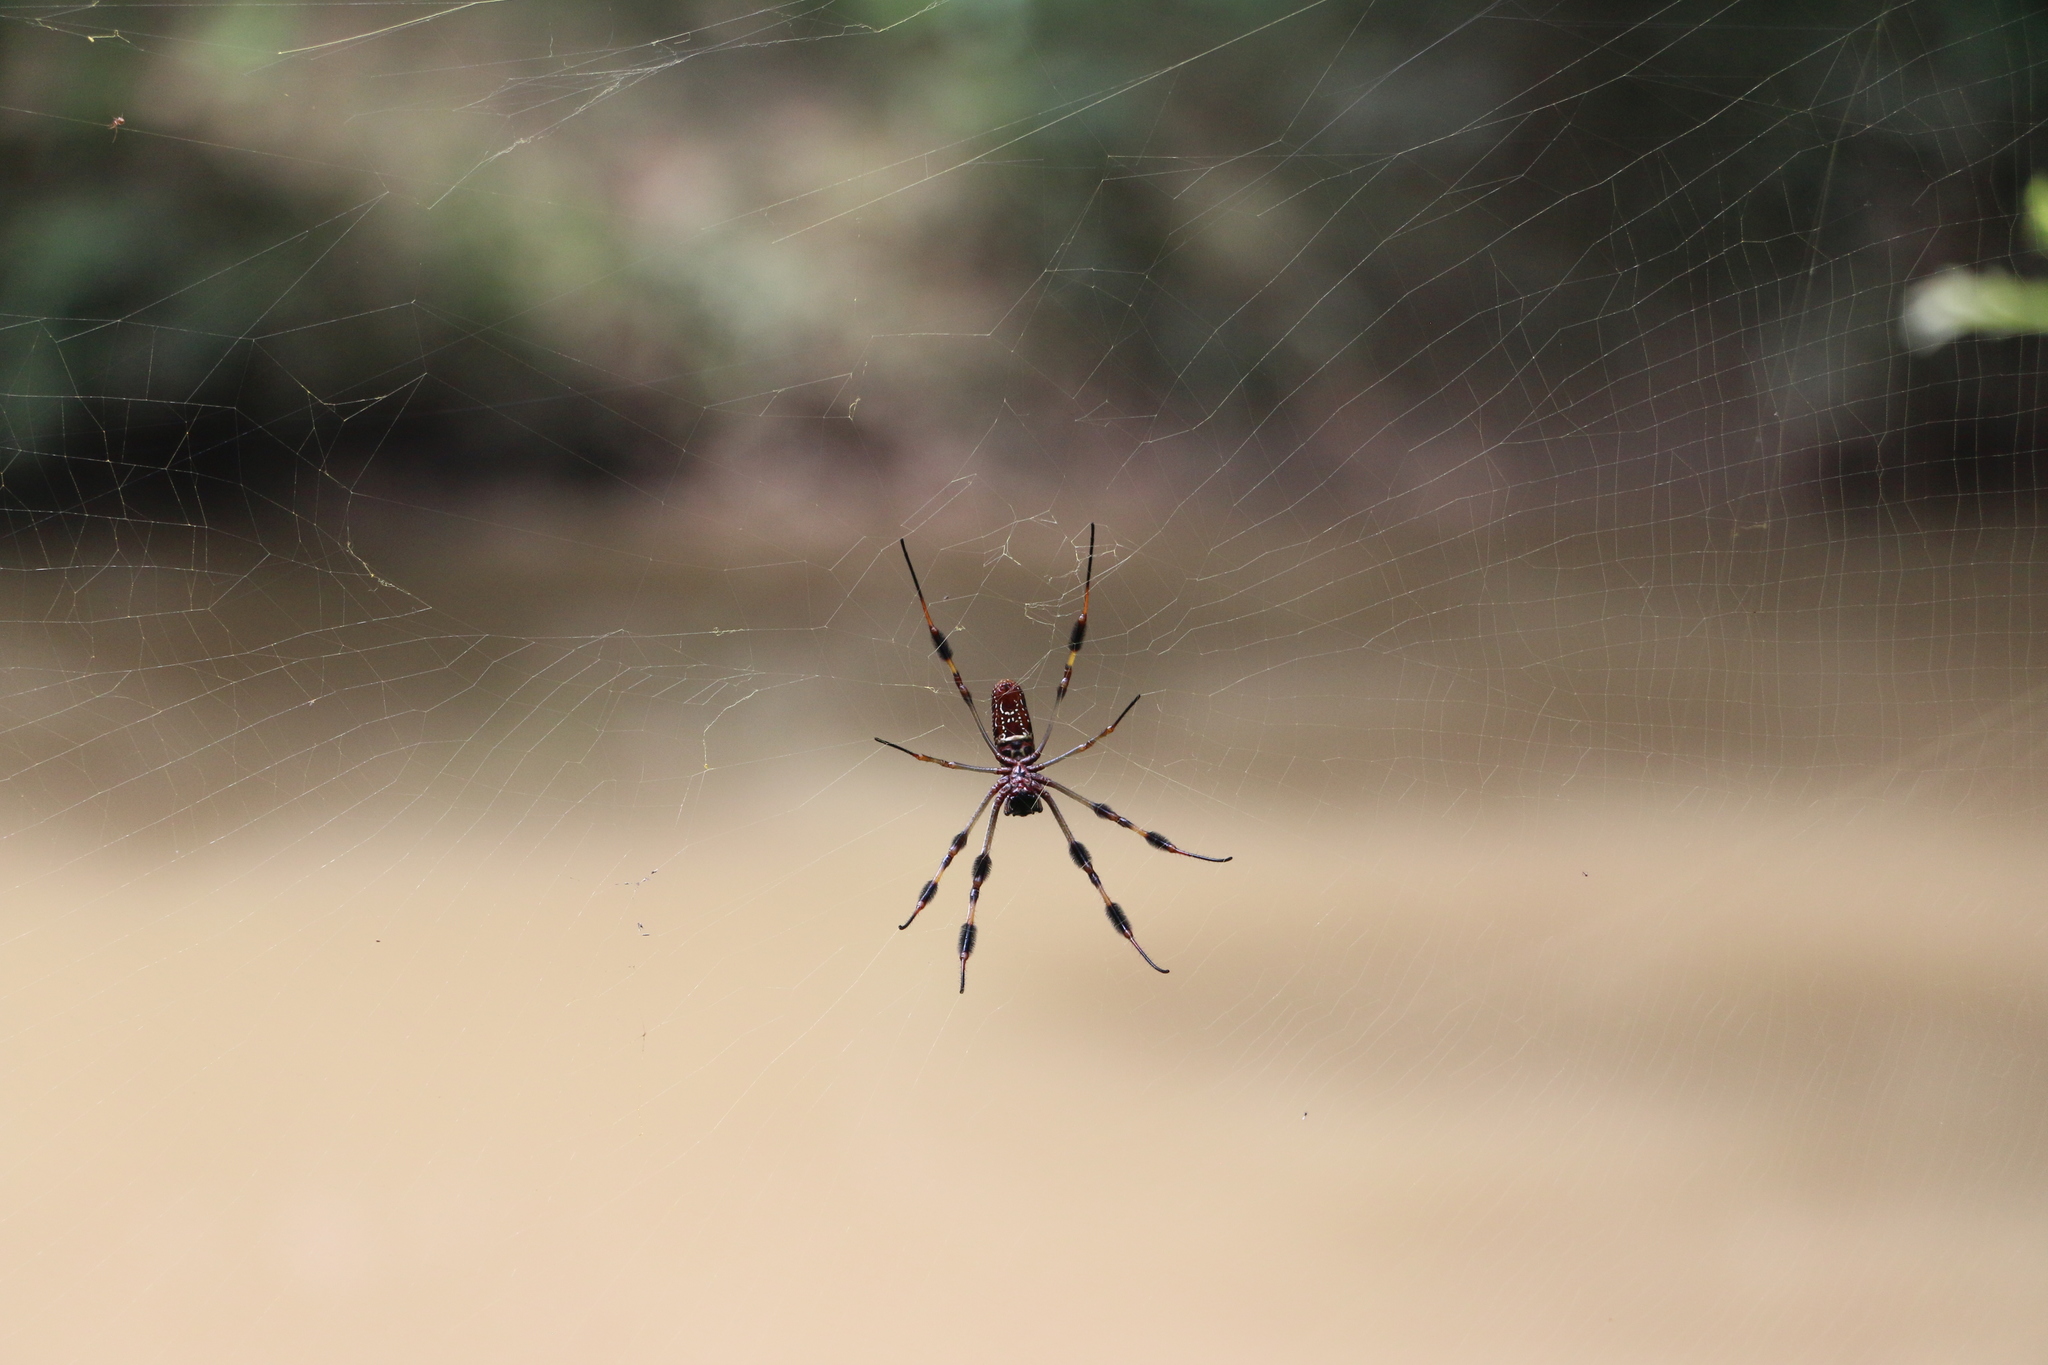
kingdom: Animalia
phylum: Arthropoda
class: Arachnida
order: Araneae
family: Araneidae
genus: Trichonephila
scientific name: Trichonephila clavipes
